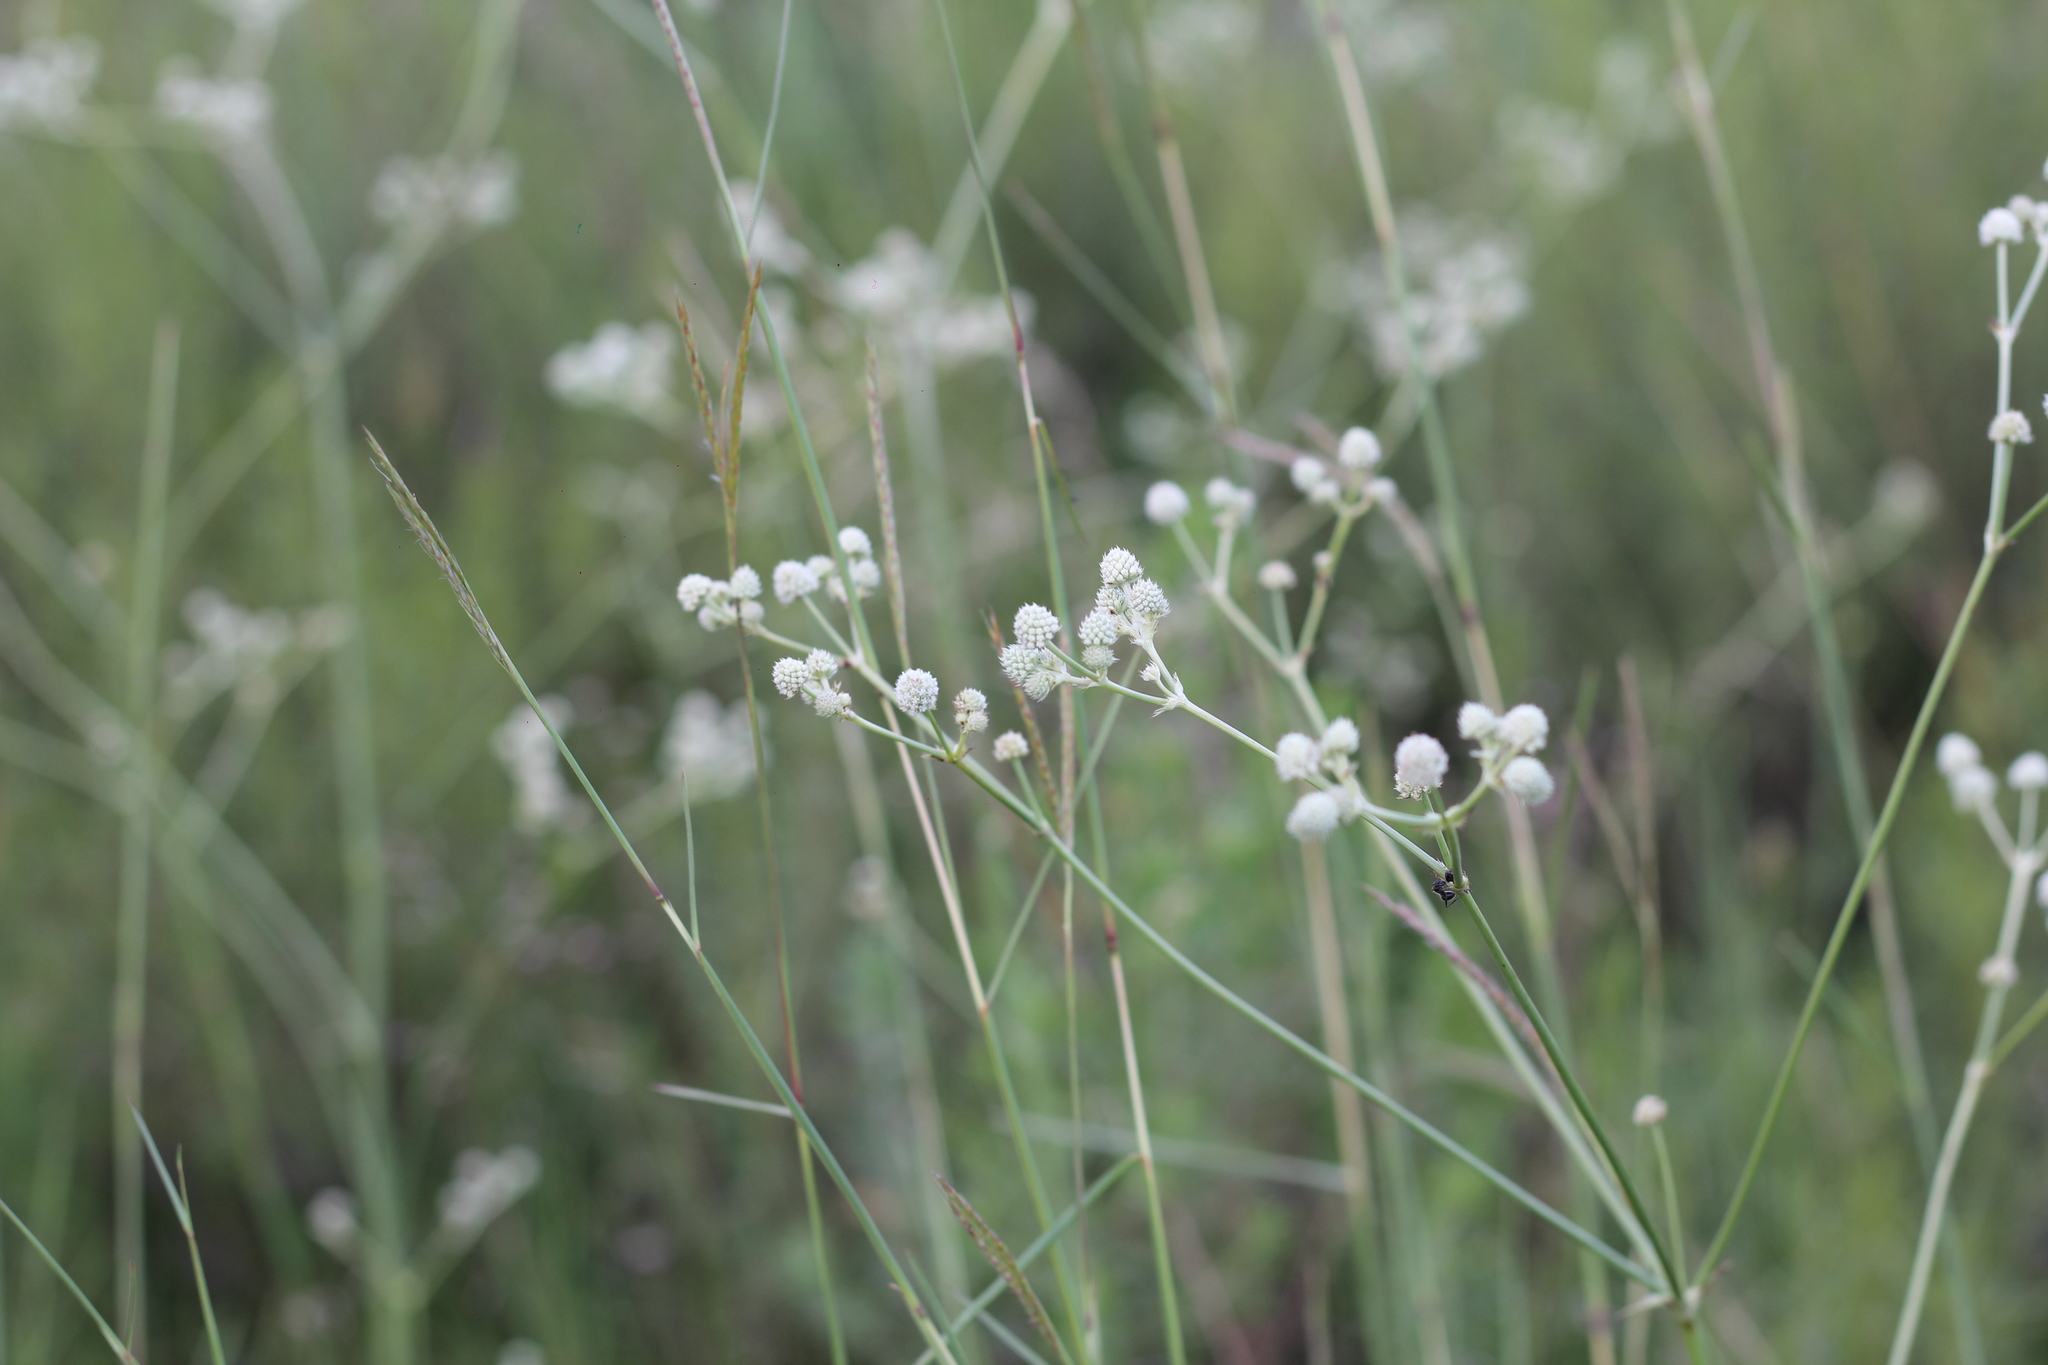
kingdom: Plantae
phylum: Tracheophyta
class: Magnoliopsida
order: Apiales
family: Apiaceae
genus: Eryngium
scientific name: Eryngium elegans
